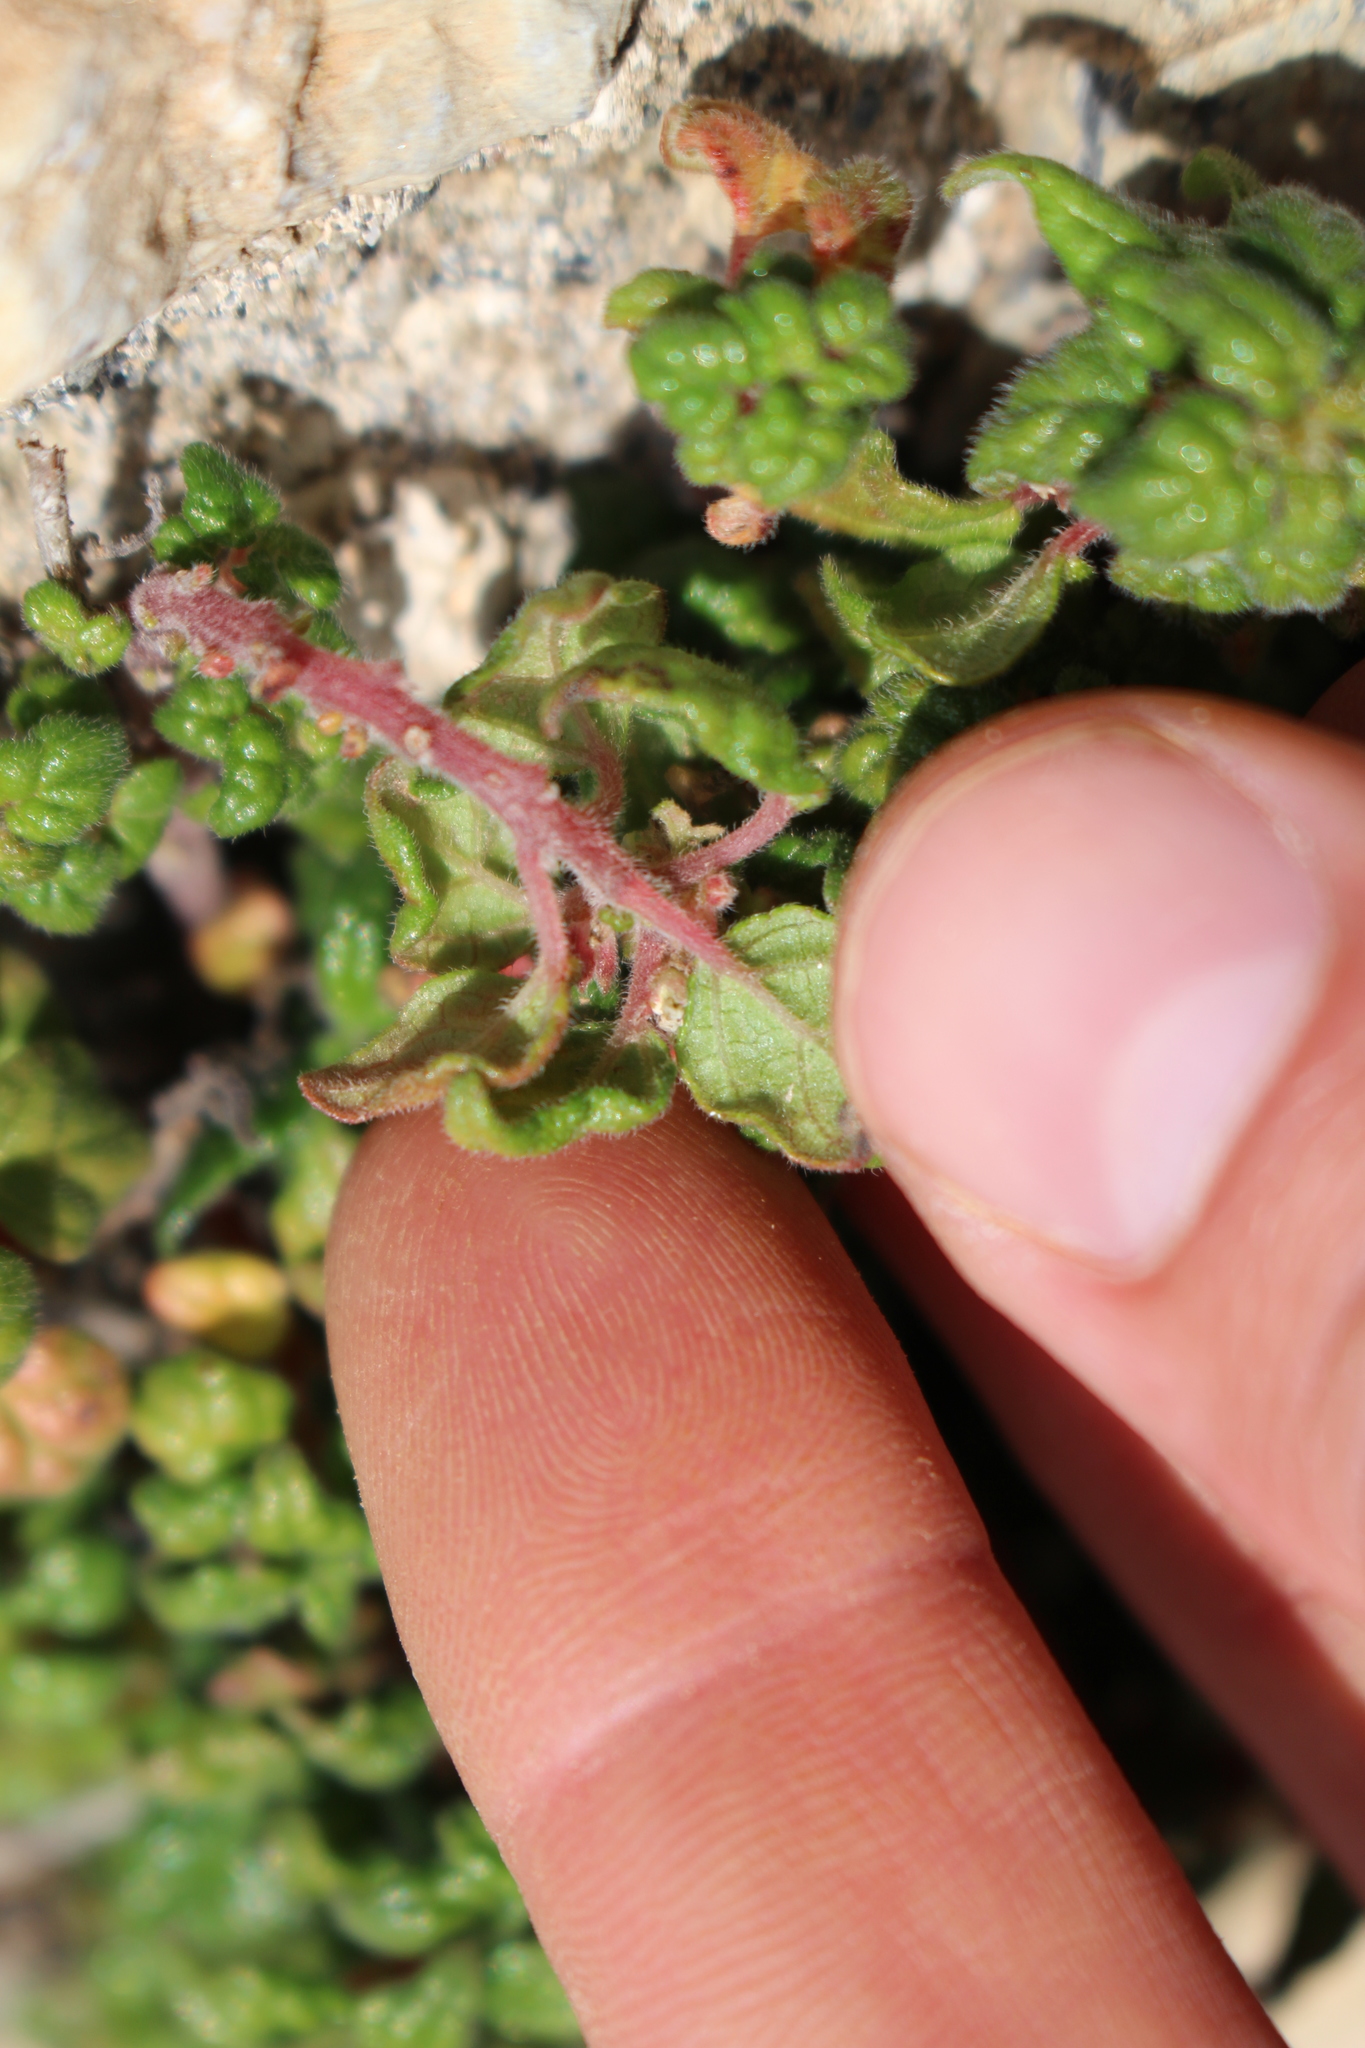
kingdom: Plantae
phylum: Tracheophyta
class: Magnoliopsida
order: Rosales
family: Urticaceae
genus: Parietaria
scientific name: Parietaria judaica
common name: Pellitory-of-the-wall
